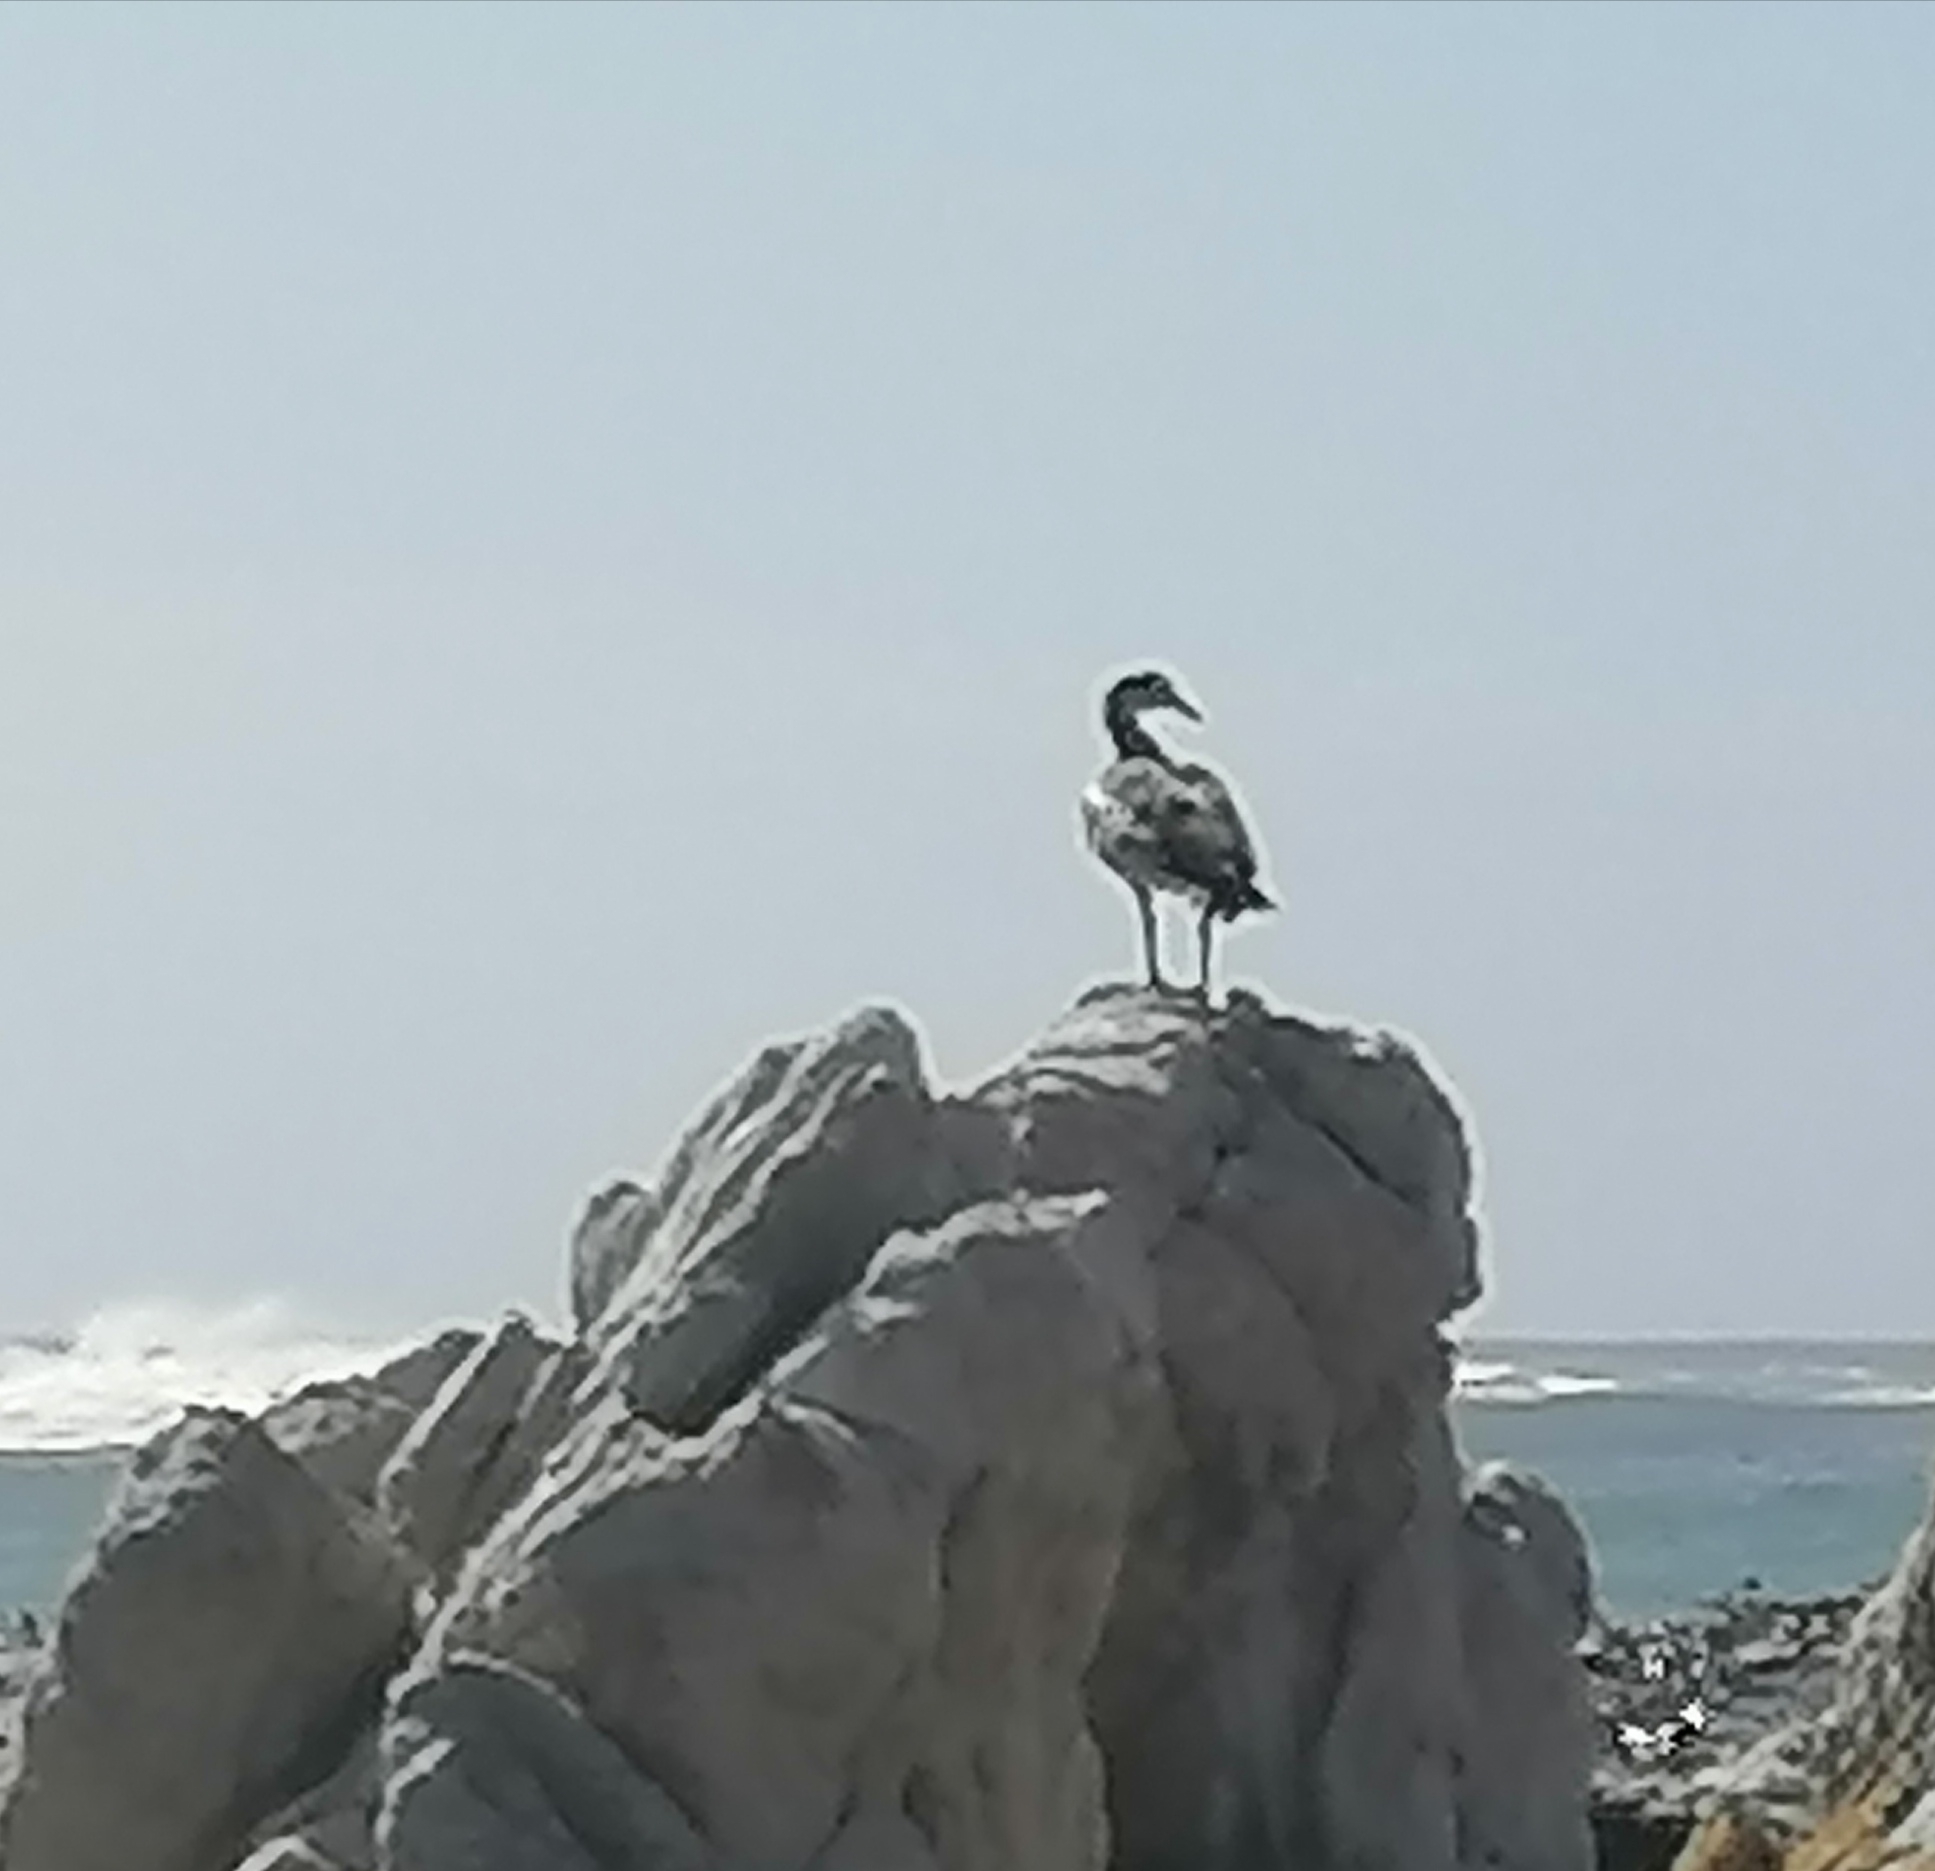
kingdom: Animalia
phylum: Chordata
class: Aves
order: Anseriformes
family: Anatidae
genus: Alopochen
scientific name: Alopochen aegyptiaca
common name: Egyptian goose
